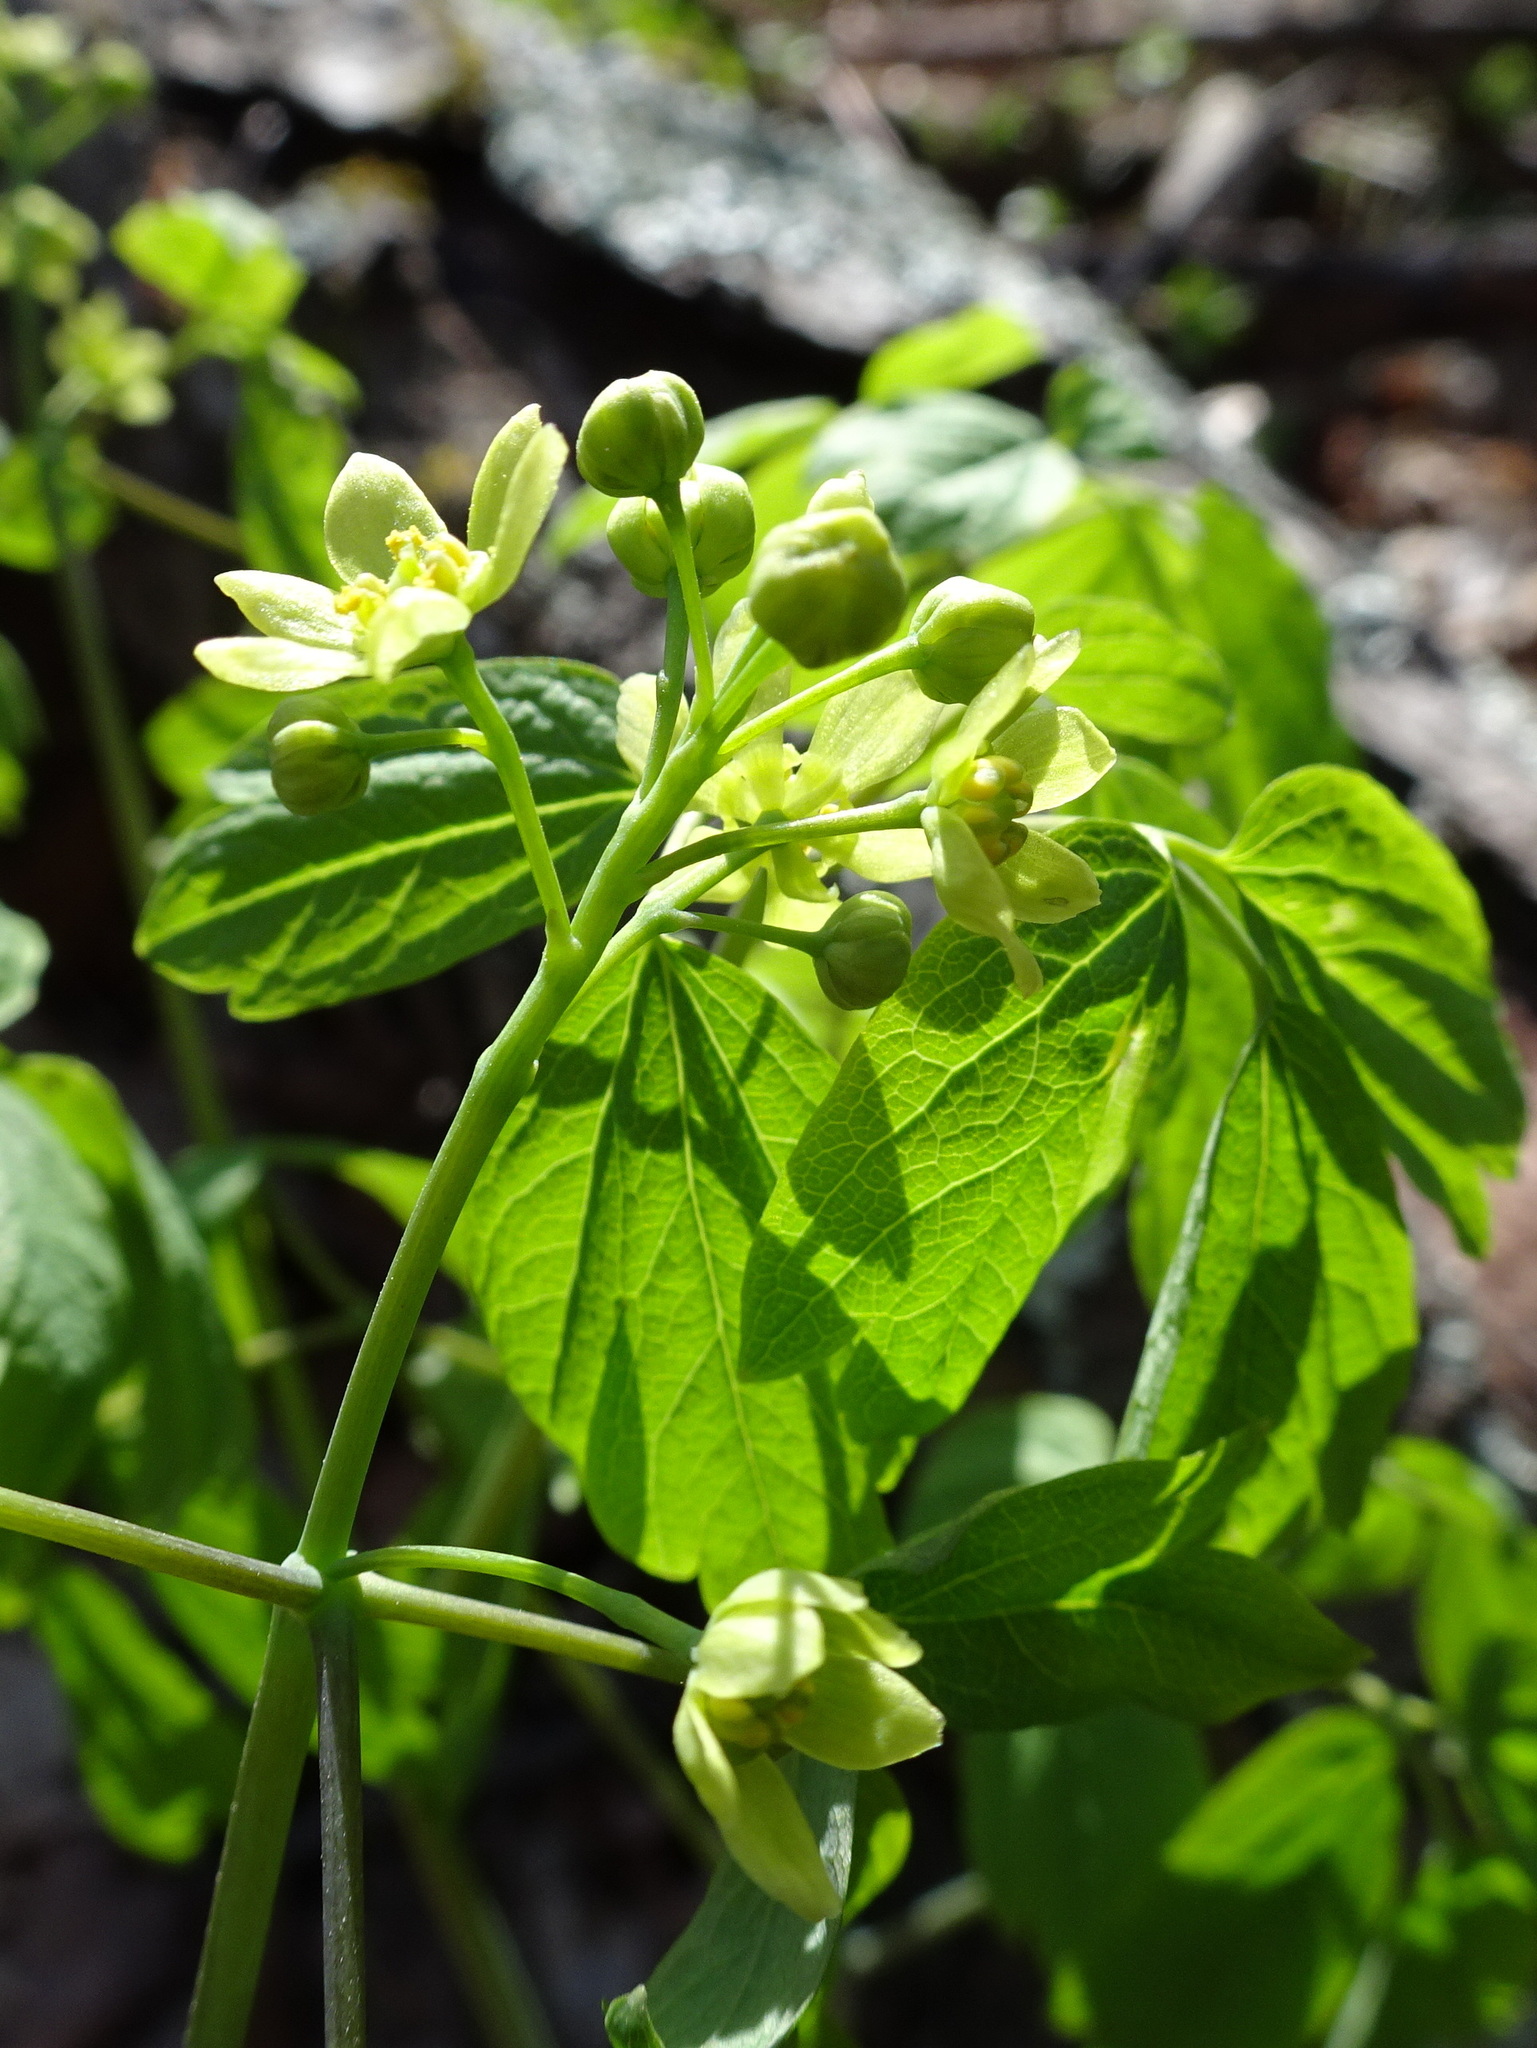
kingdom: Plantae
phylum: Tracheophyta
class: Magnoliopsida
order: Ranunculales
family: Berberidaceae
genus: Caulophyllum
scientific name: Caulophyllum thalictroides
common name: Blue cohosh
